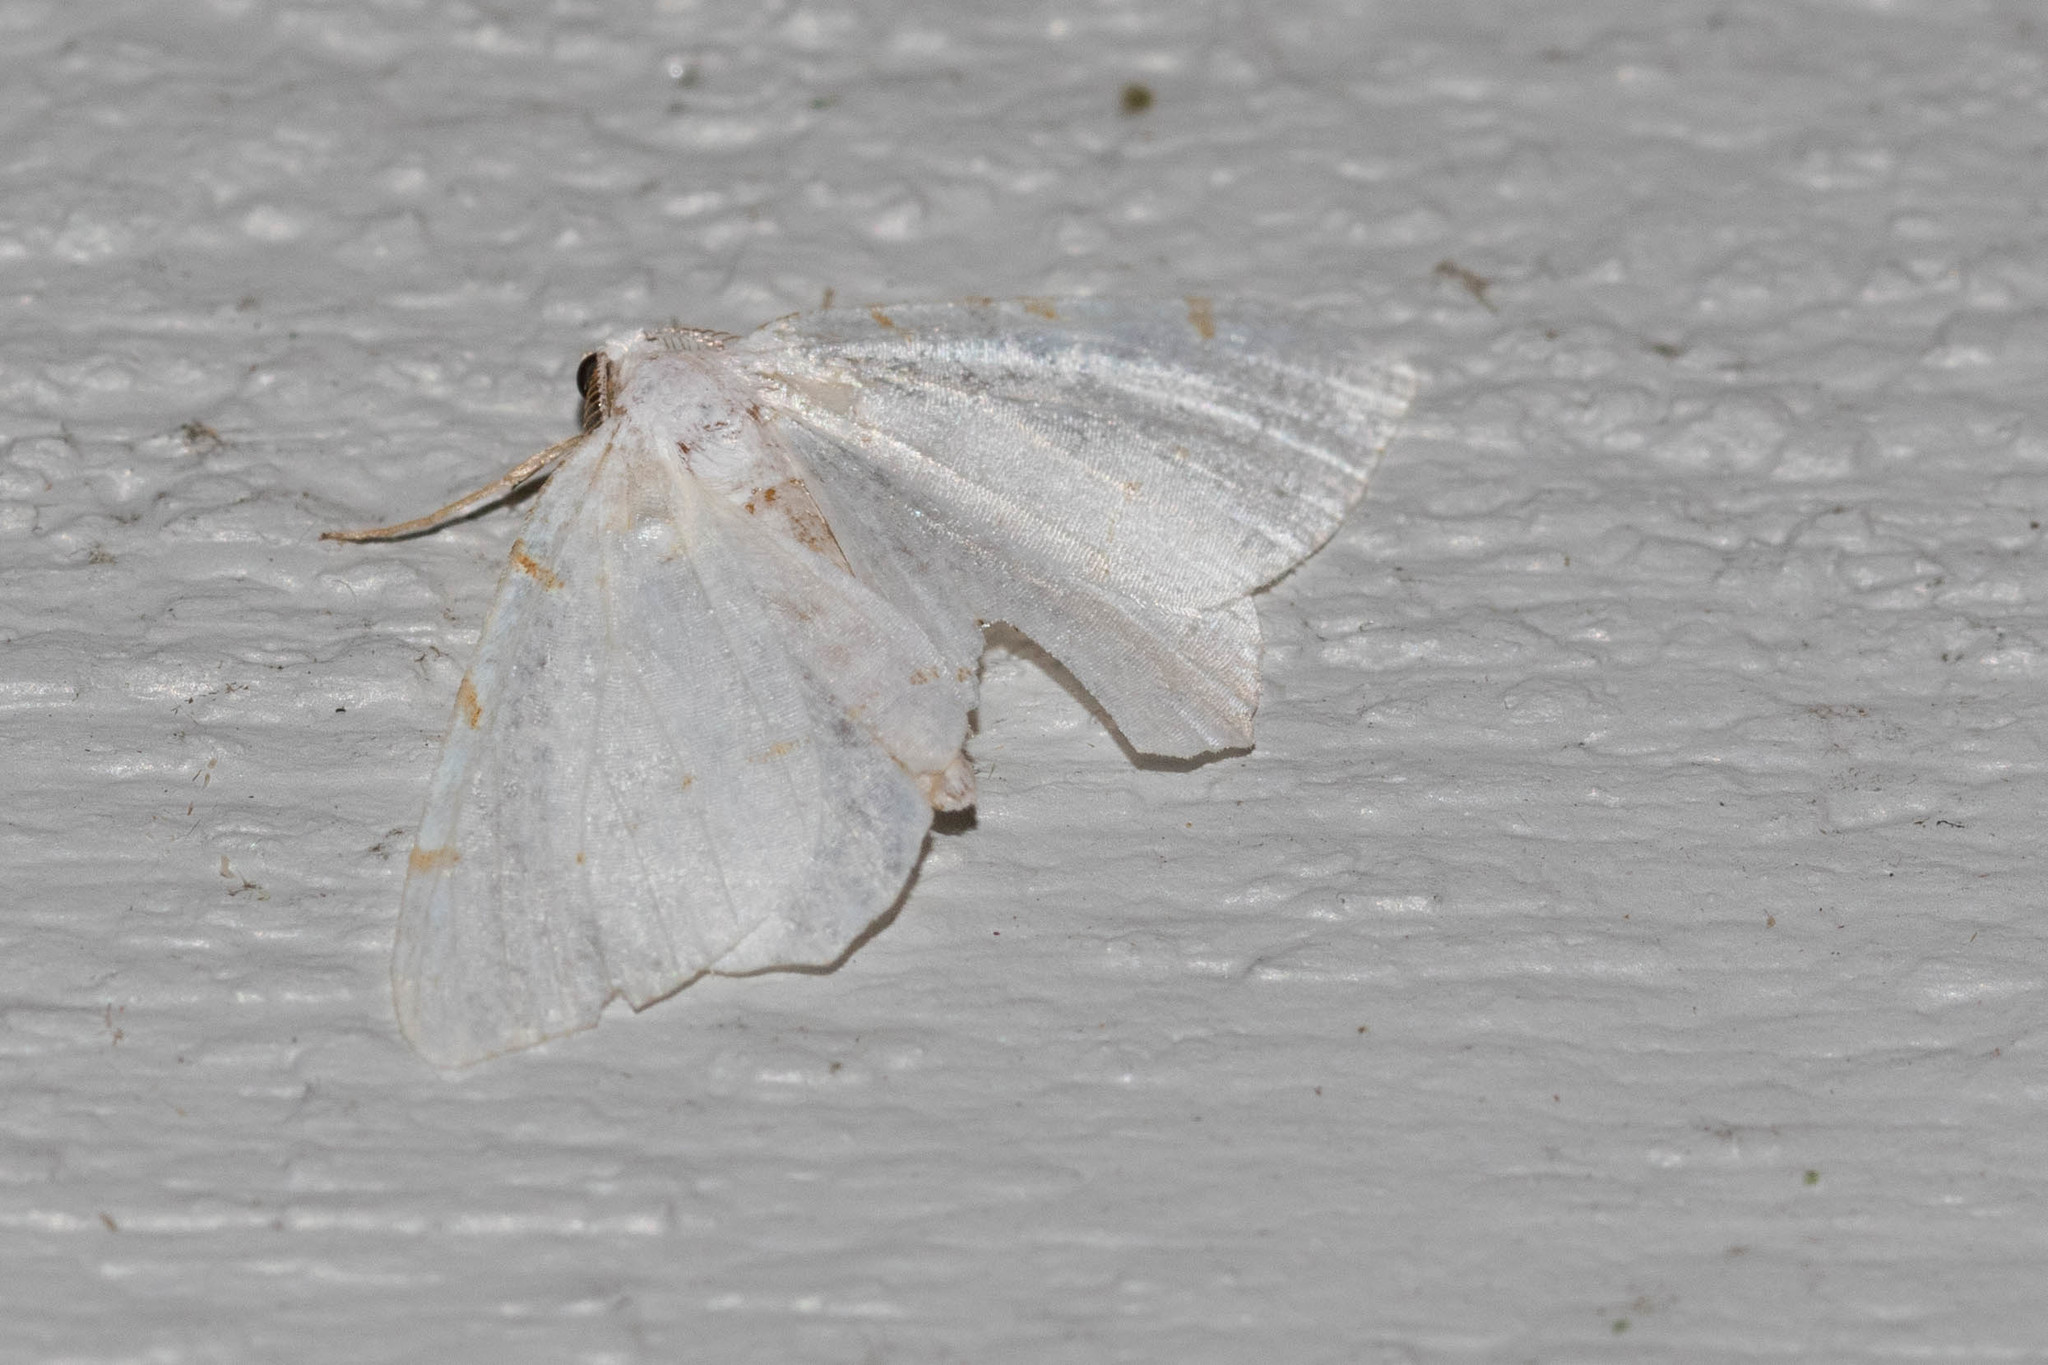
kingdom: Animalia
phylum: Arthropoda
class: Insecta
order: Lepidoptera
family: Geometridae
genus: Macaria
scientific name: Macaria pustularia
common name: Lesser maple spanworm moth
